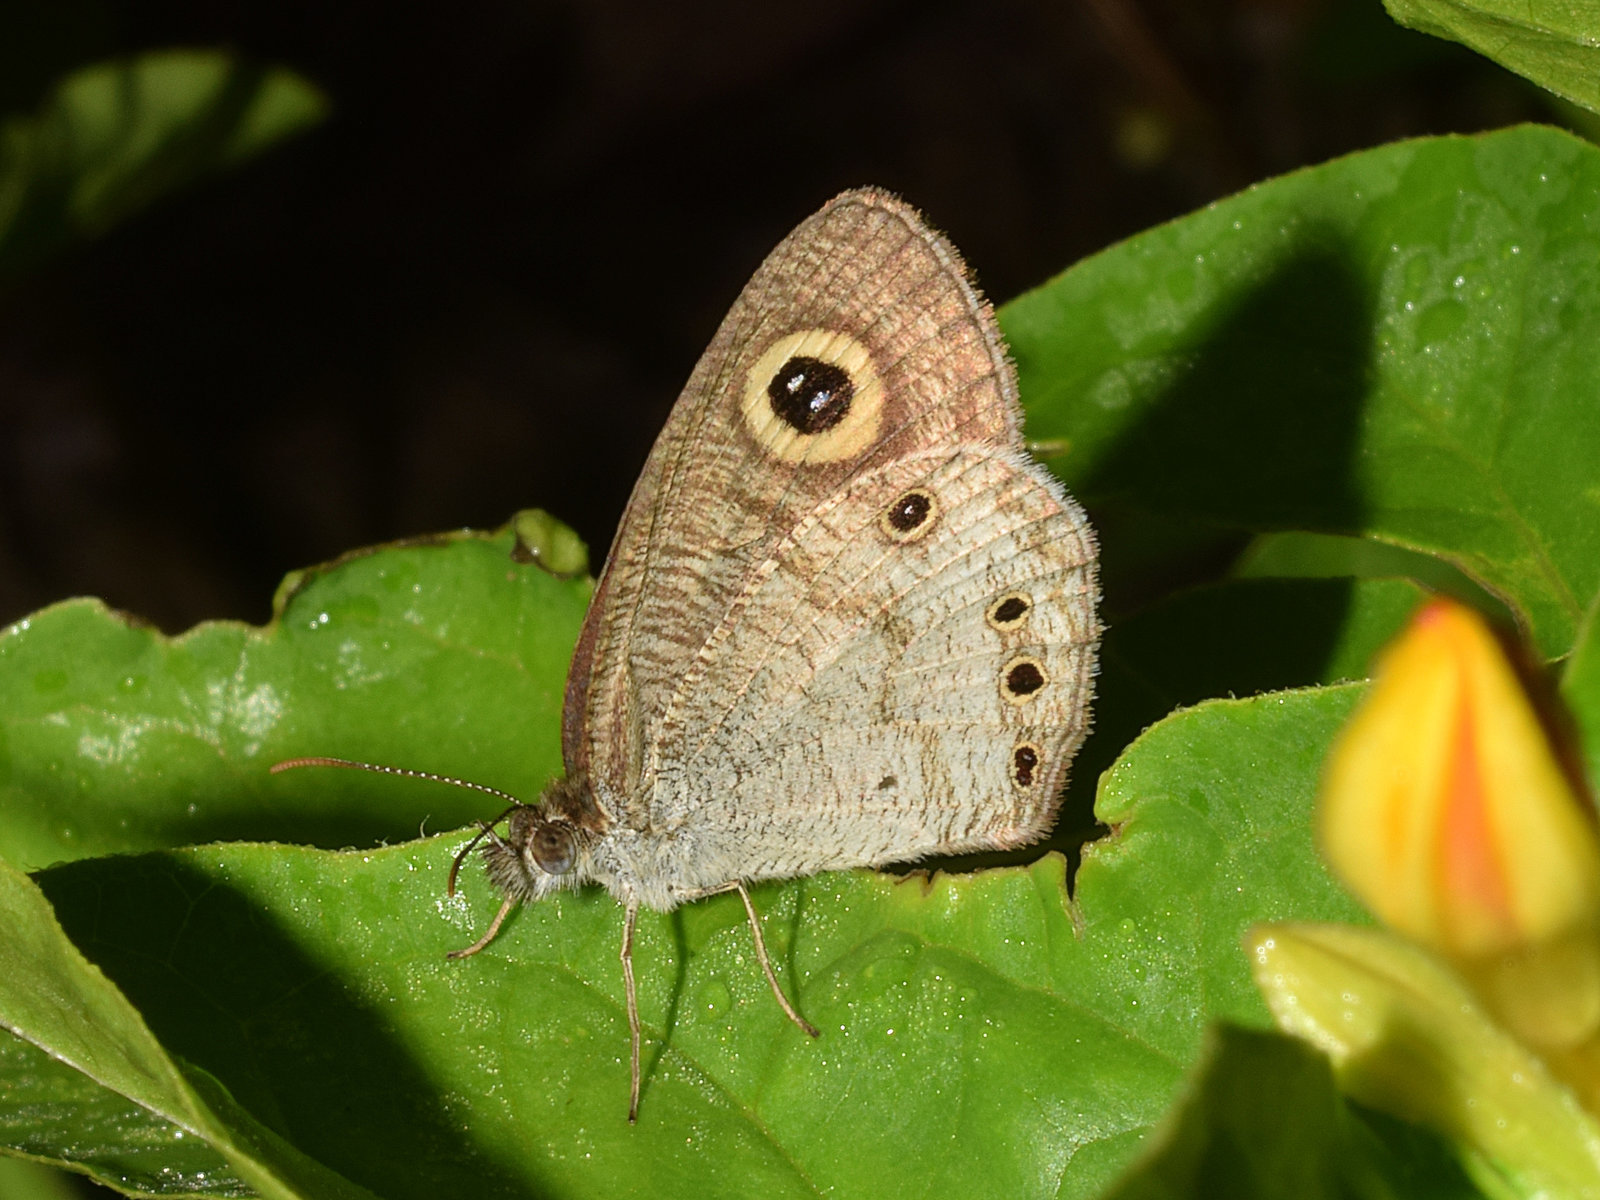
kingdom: Animalia
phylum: Arthropoda
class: Insecta
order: Lepidoptera
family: Nymphalidae
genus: Ypthima
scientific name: Ypthima huebneri
